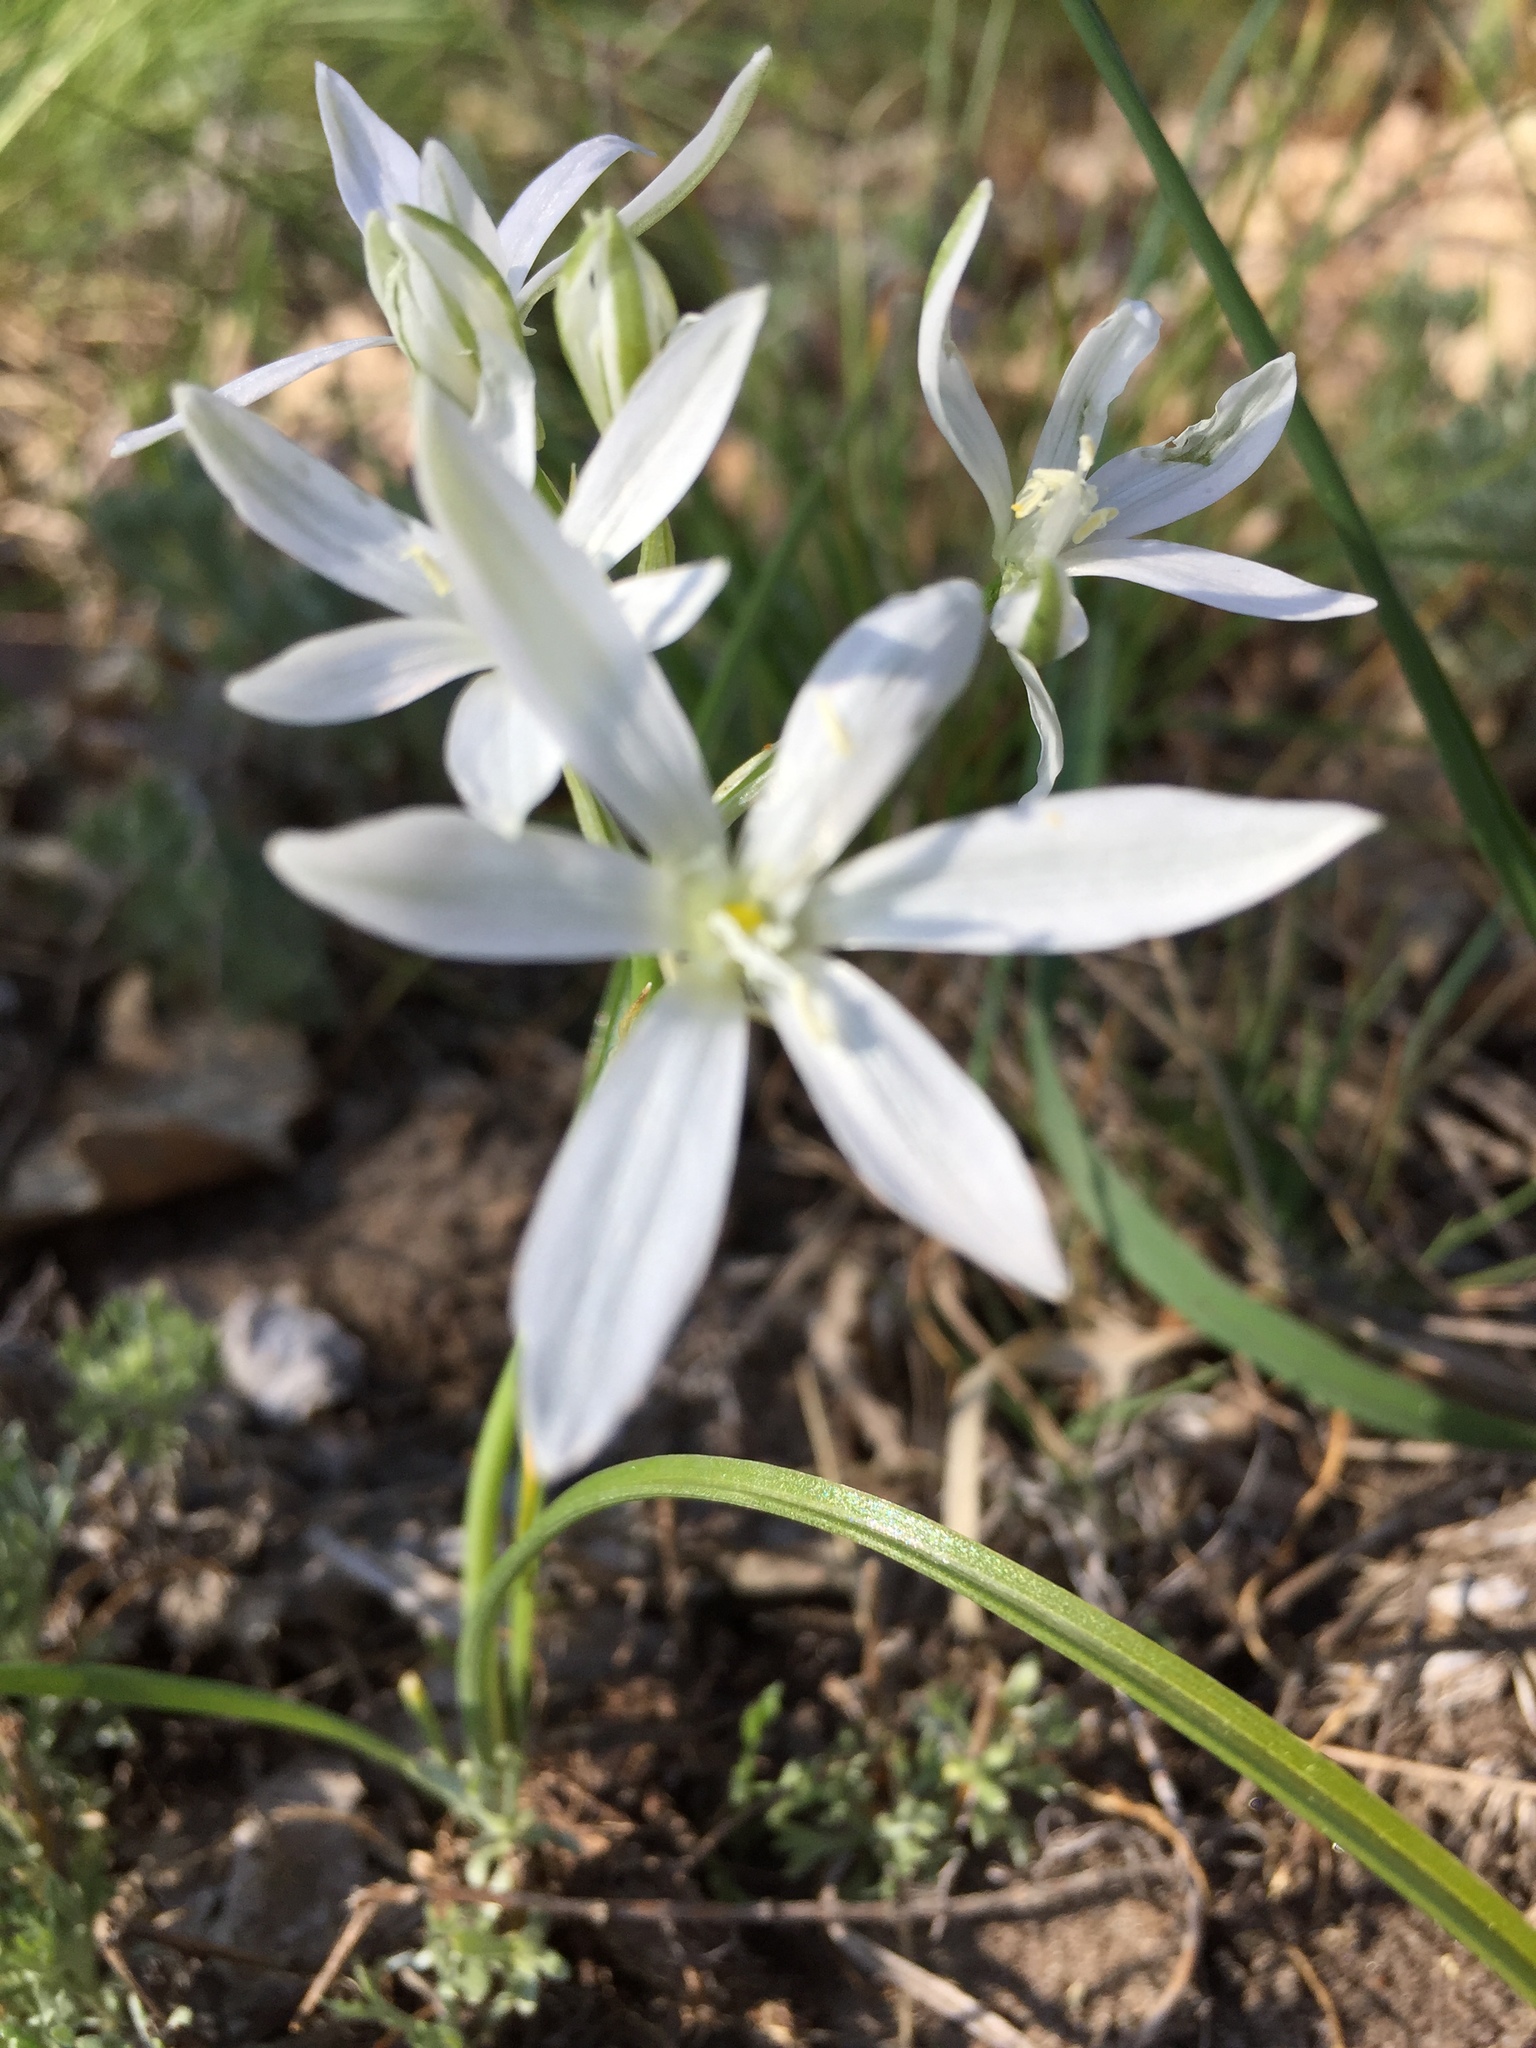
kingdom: Plantae
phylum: Tracheophyta
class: Liliopsida
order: Asparagales
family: Asparagaceae
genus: Ornithogalum
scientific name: Ornithogalum orthophyllum
